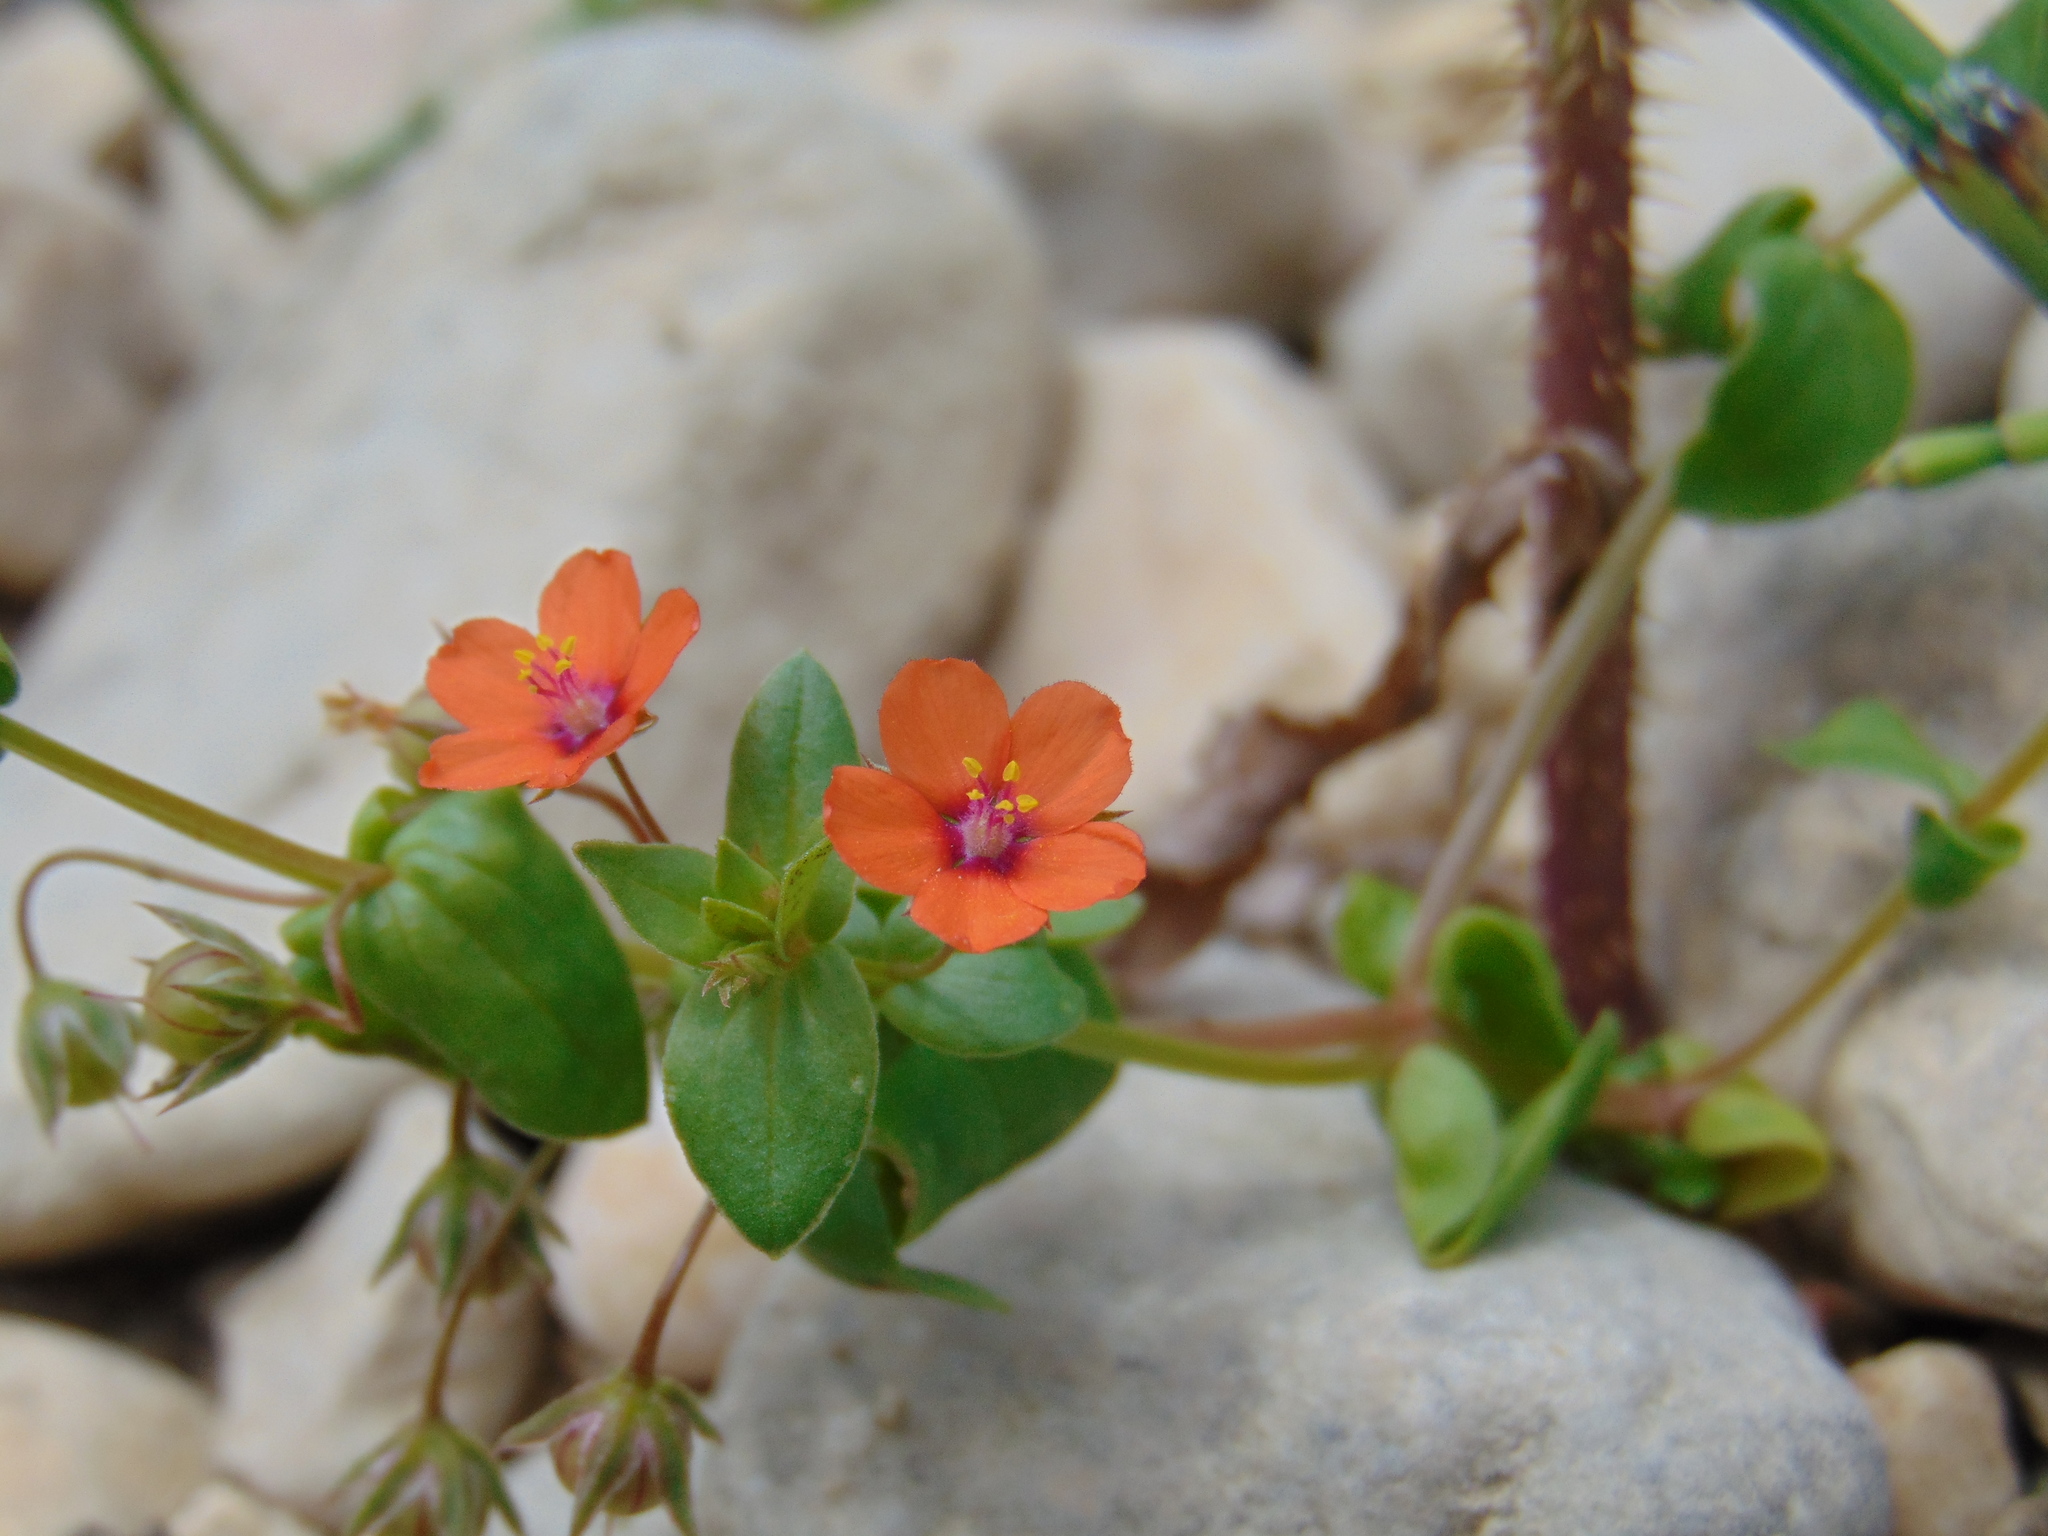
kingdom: Plantae
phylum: Tracheophyta
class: Magnoliopsida
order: Ericales
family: Primulaceae
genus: Lysimachia
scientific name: Lysimachia arvensis
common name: Scarlet pimpernel
